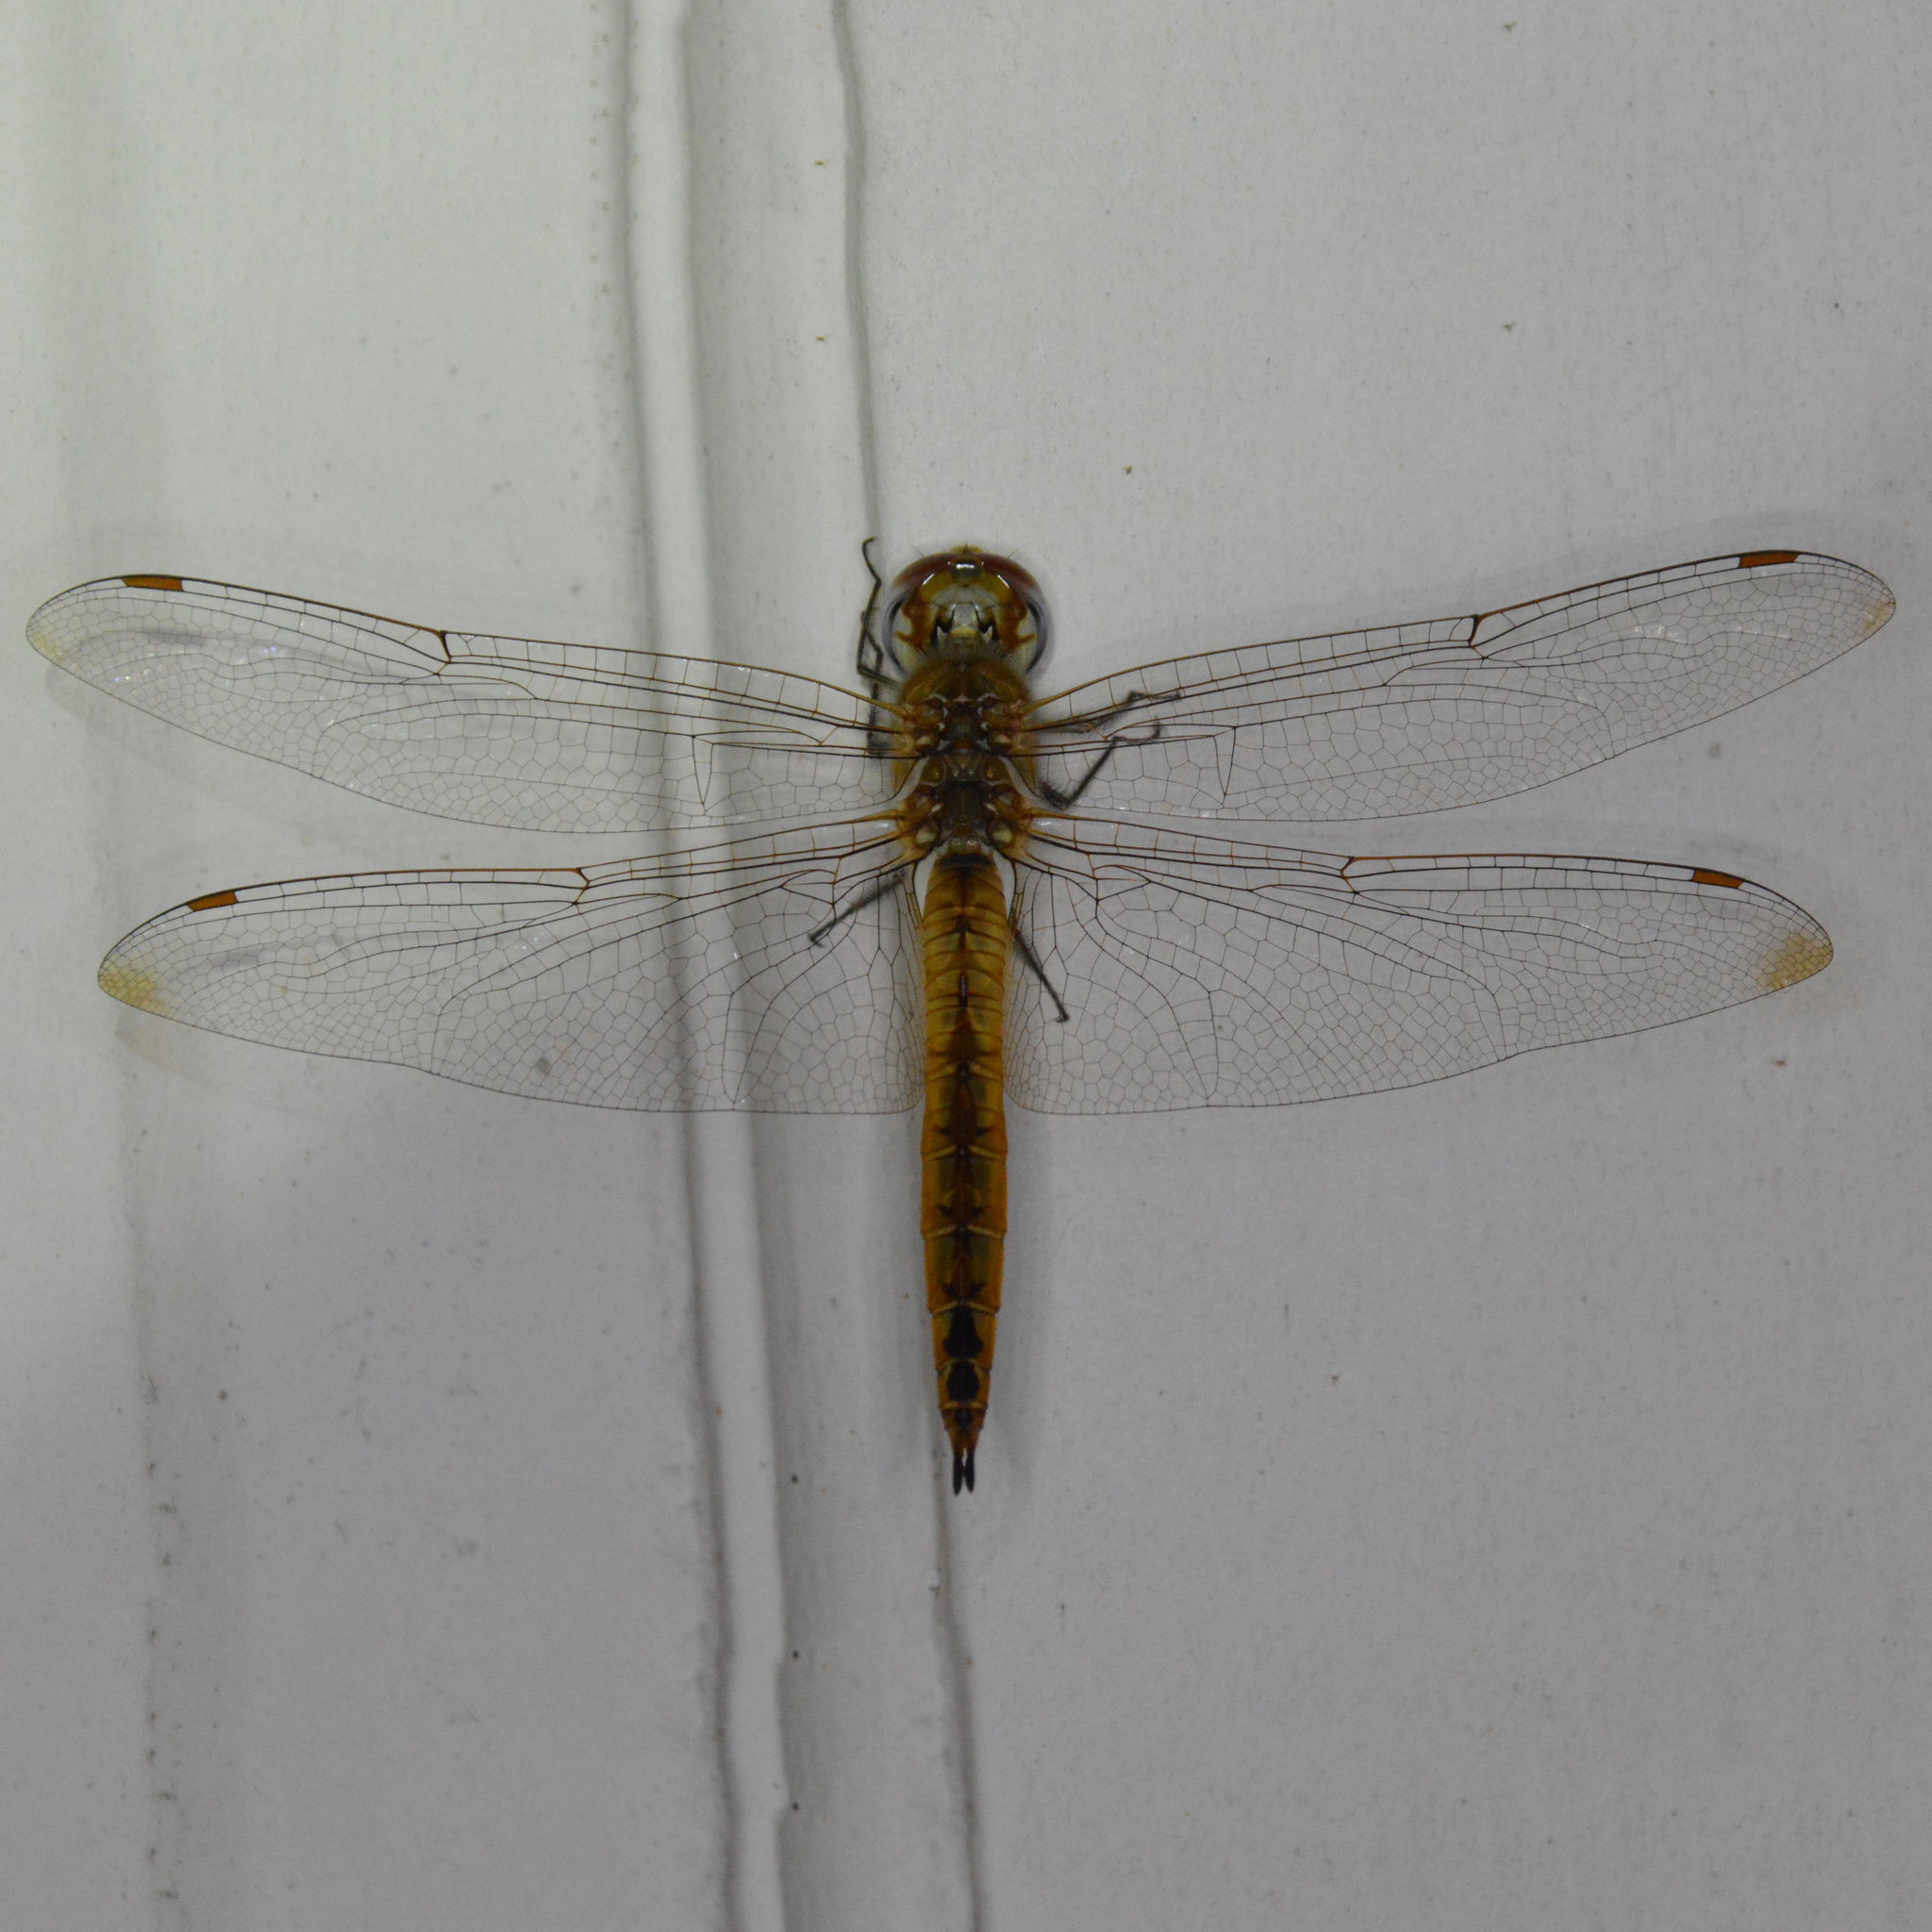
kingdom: Animalia
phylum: Arthropoda
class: Insecta
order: Odonata
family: Libellulidae
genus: Pantala
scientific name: Pantala flavescens
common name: Wandering glider
